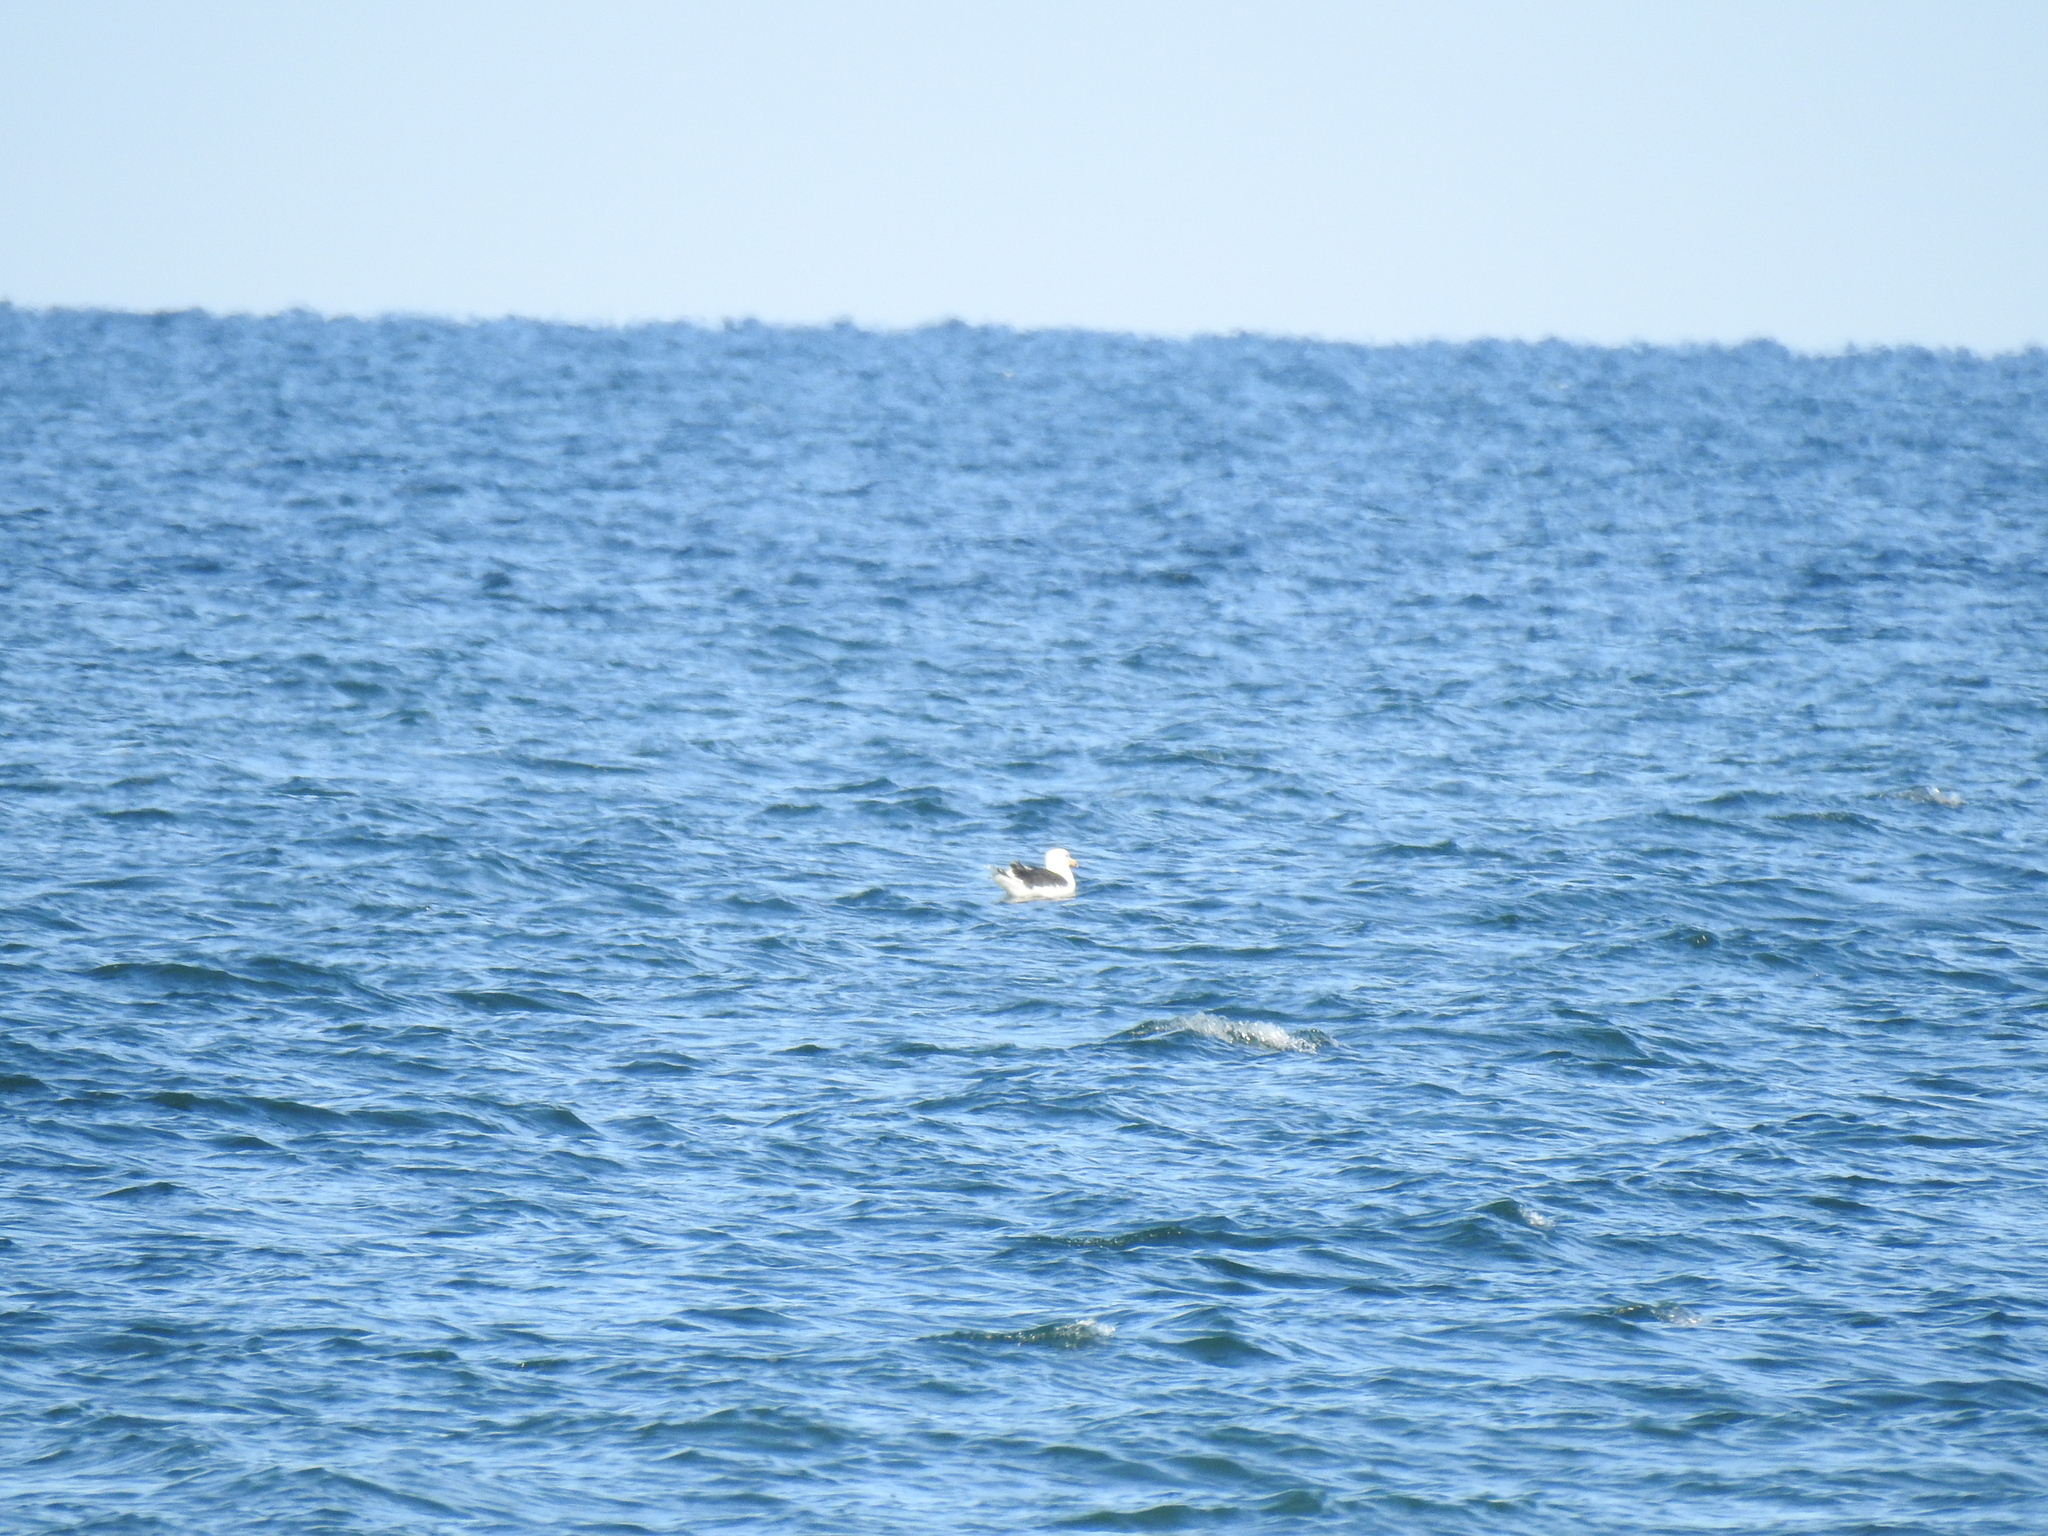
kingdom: Animalia
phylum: Chordata
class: Aves
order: Charadriiformes
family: Laridae
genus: Larus
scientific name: Larus marinus
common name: Great black-backed gull
